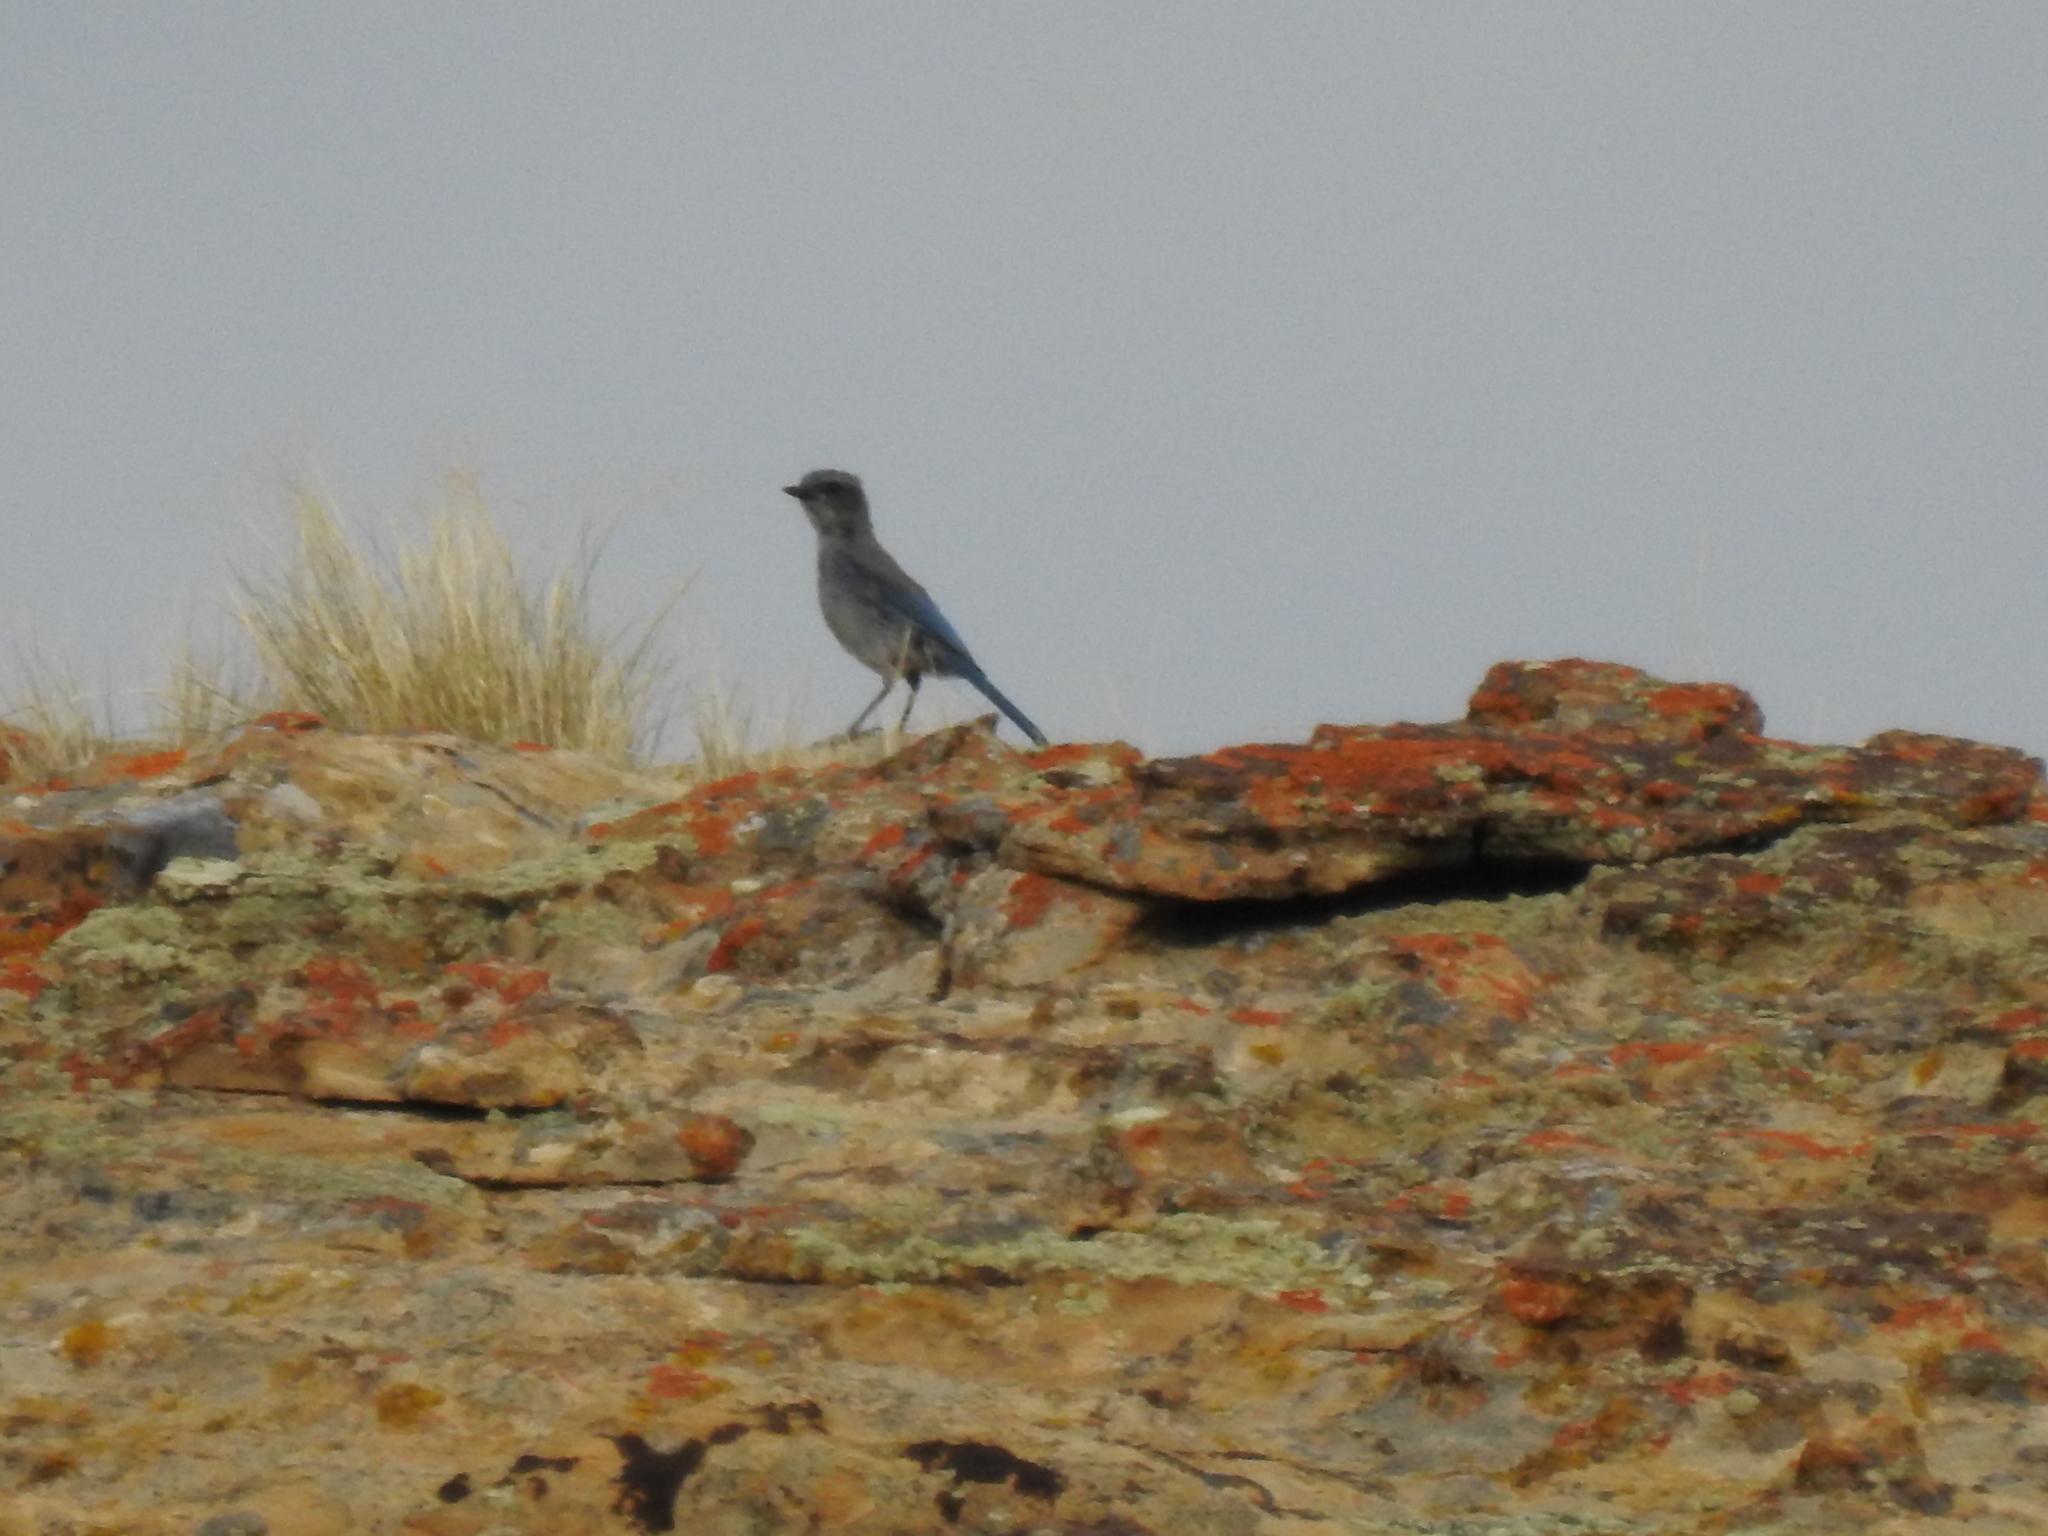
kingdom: Animalia
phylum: Chordata
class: Aves
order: Passeriformes
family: Corvidae
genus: Aphelocoma
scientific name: Aphelocoma woodhouseii
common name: Woodhouse's scrub-jay
